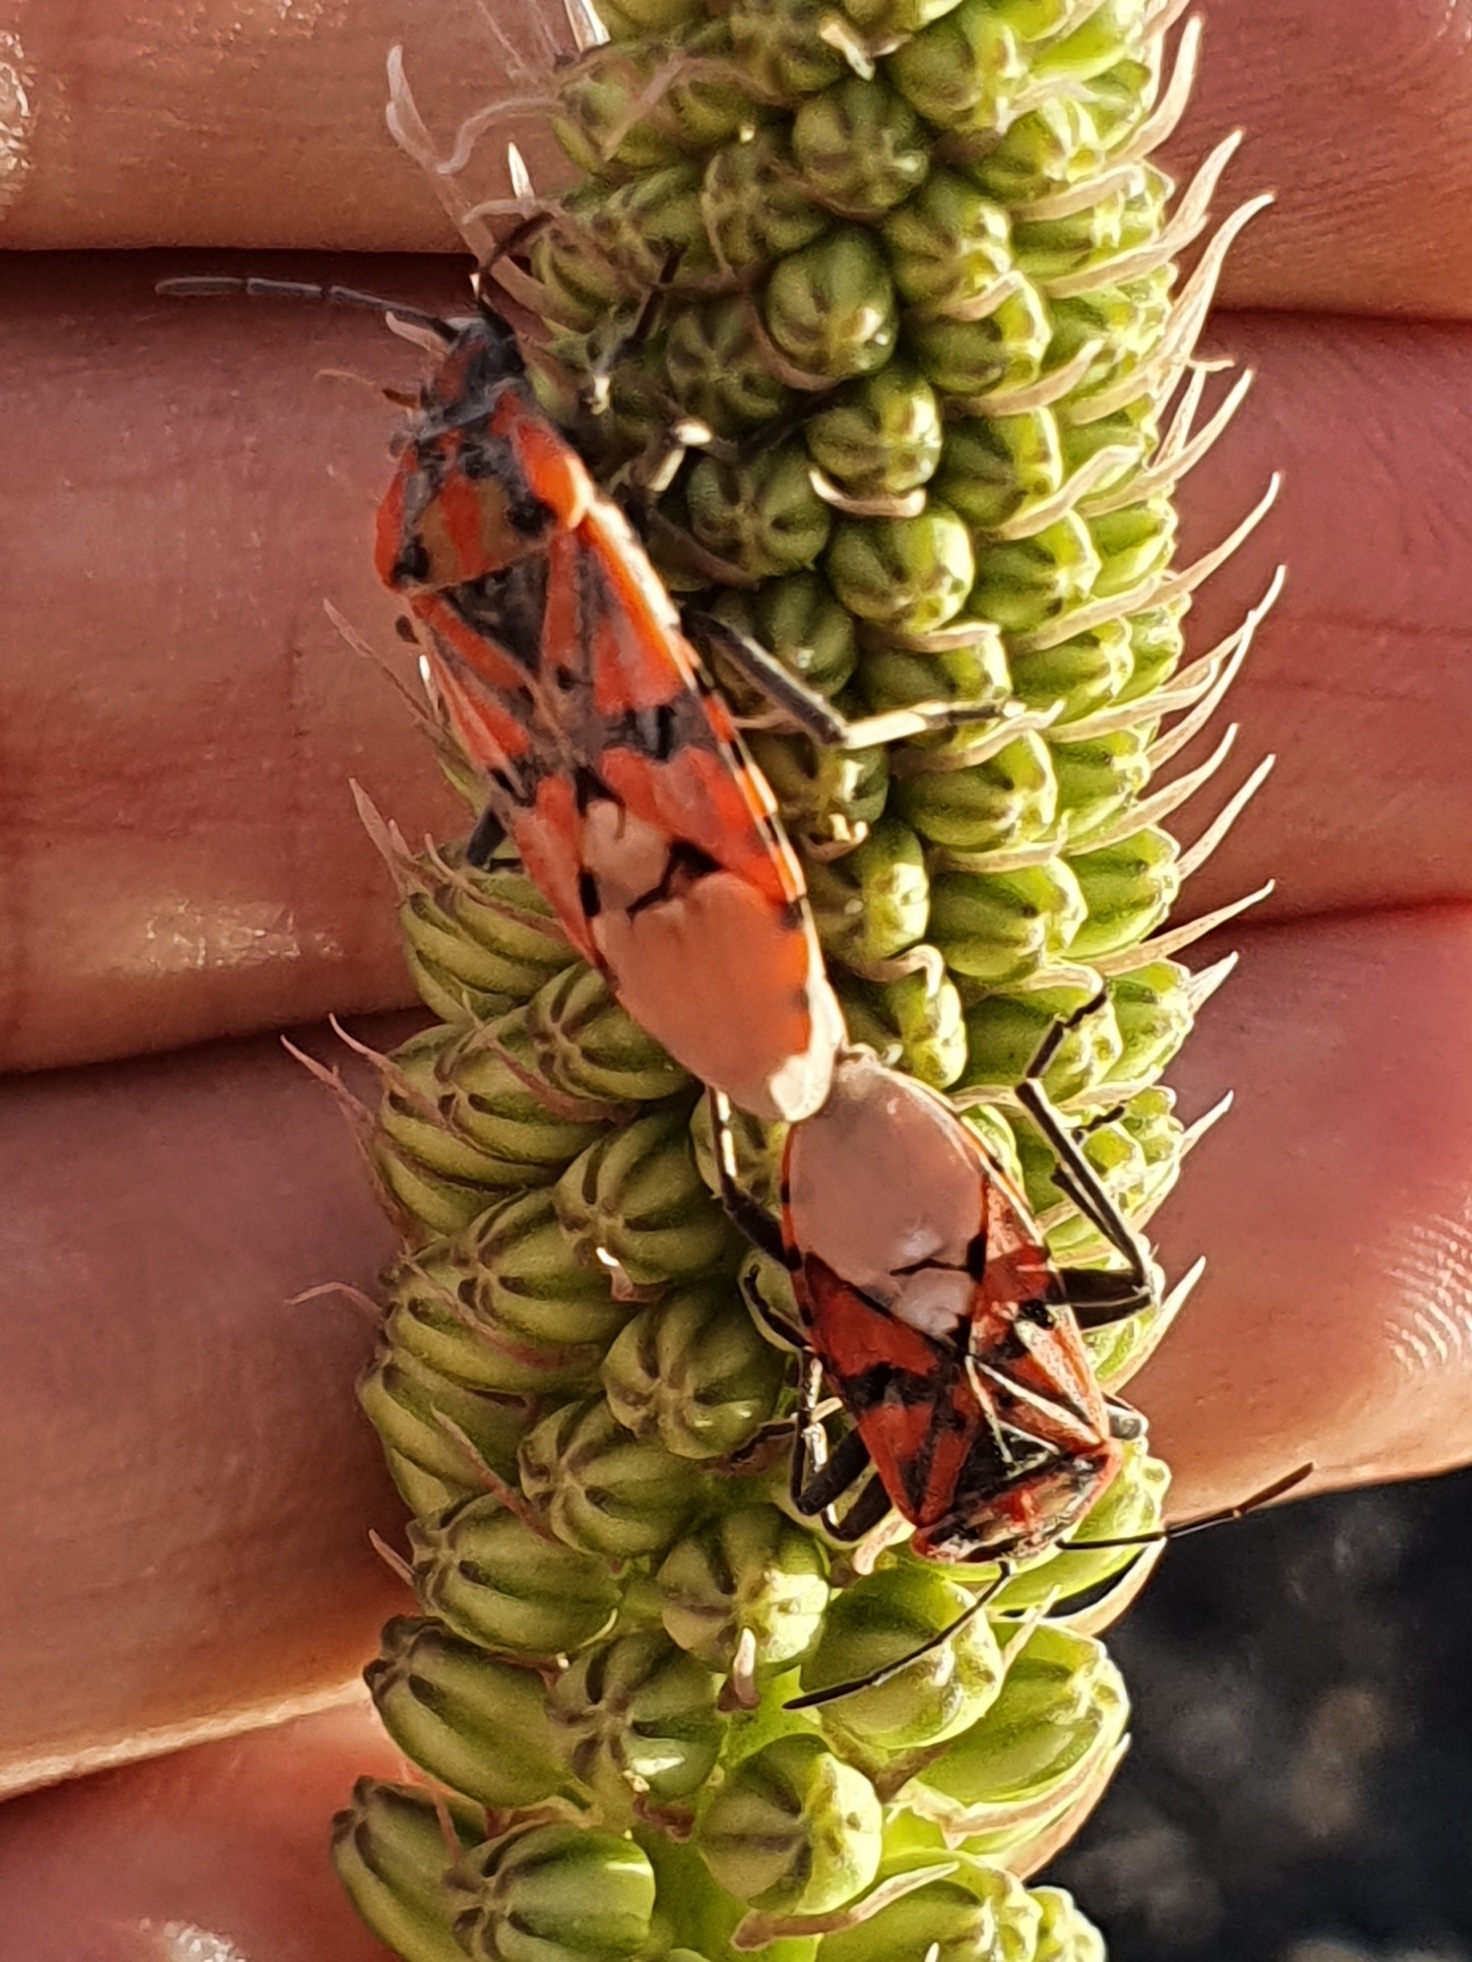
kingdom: Animalia
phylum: Arthropoda
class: Insecta
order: Hemiptera
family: Lygaeidae
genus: Spilostethus
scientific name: Spilostethus pandurus
